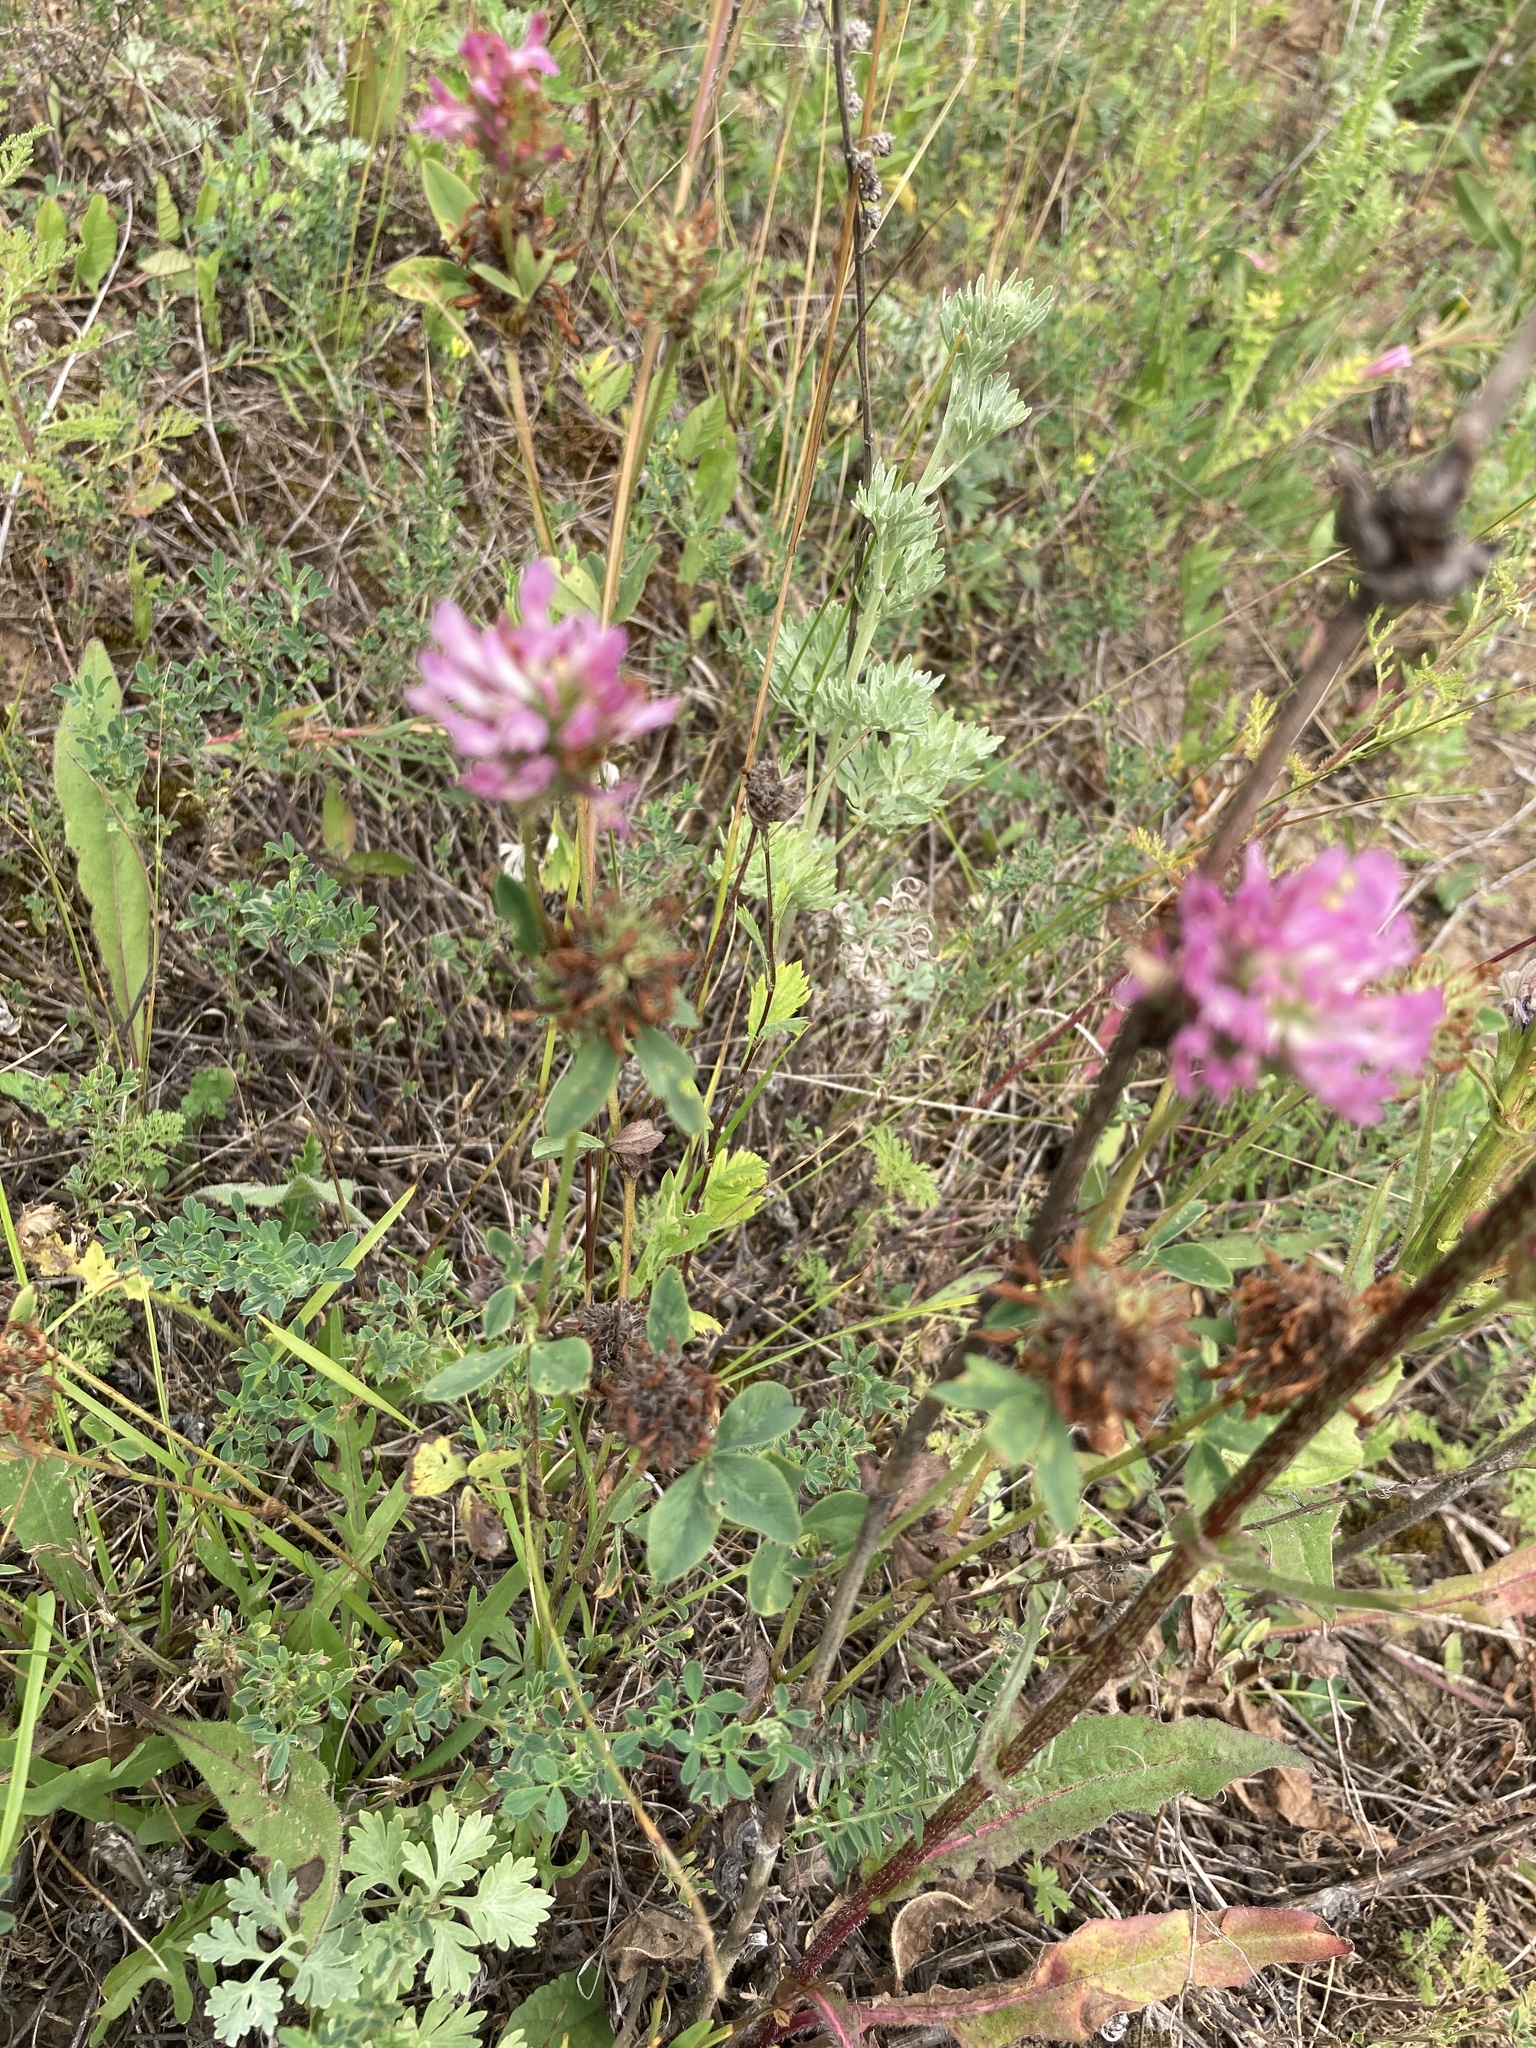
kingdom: Plantae
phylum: Tracheophyta
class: Magnoliopsida
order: Fabales
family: Fabaceae
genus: Trifolium
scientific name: Trifolium pratense
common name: Red clover
